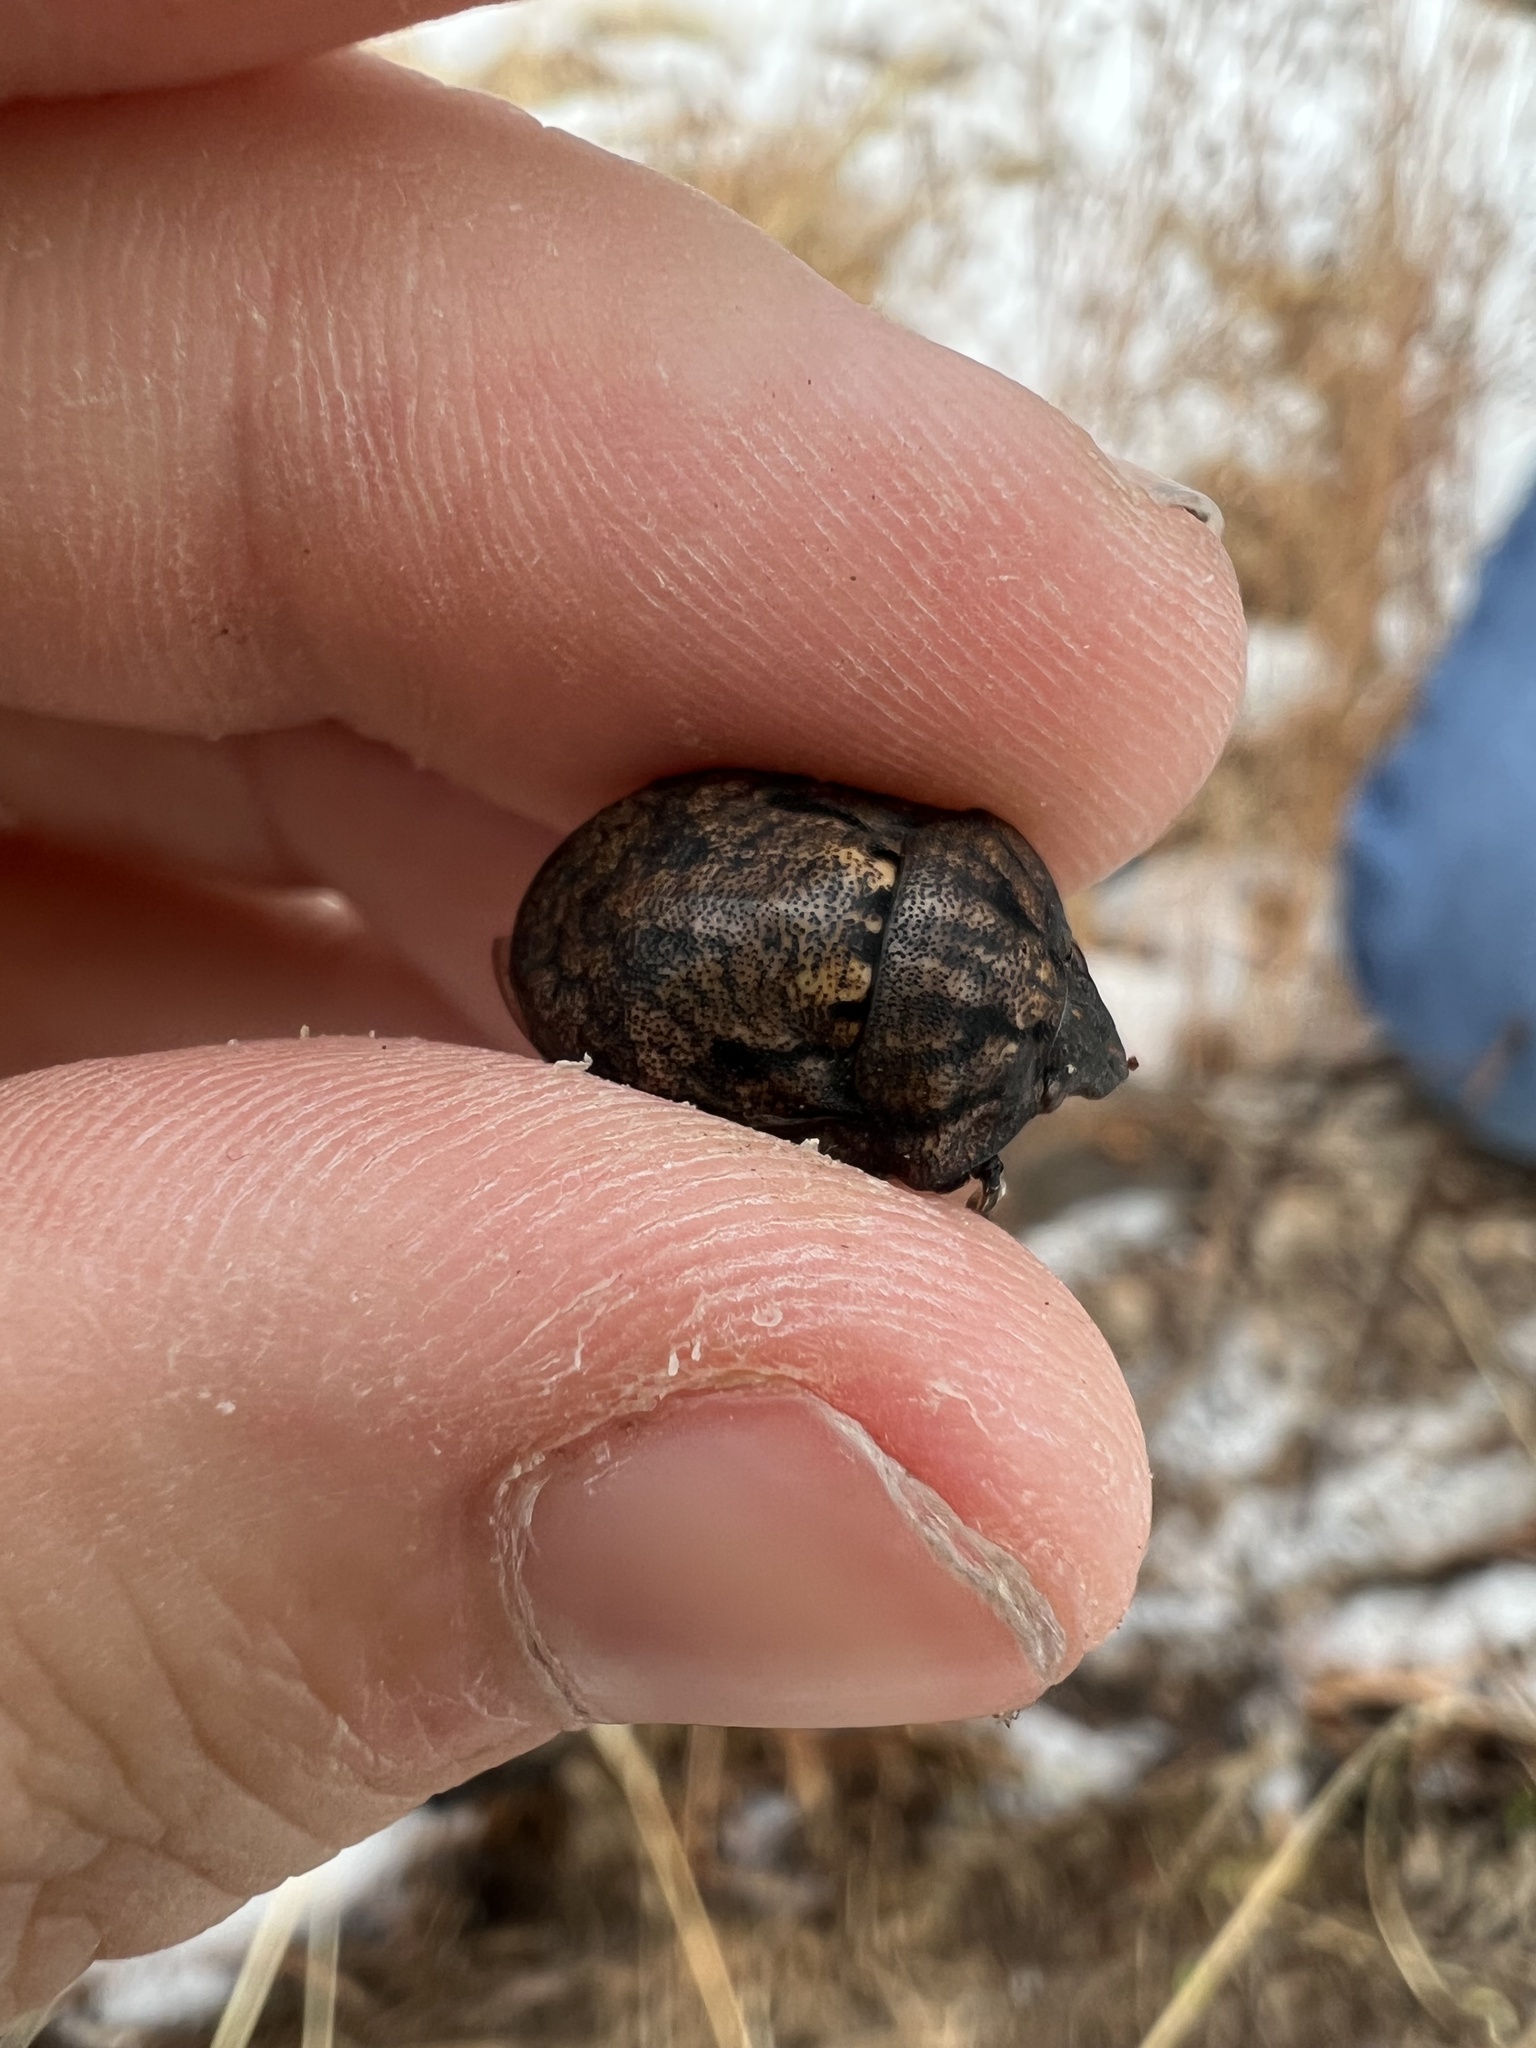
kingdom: Animalia
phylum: Arthropoda
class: Insecta
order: Hemiptera
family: Scutelleridae
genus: Tetyra
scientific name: Tetyra bipunctata
